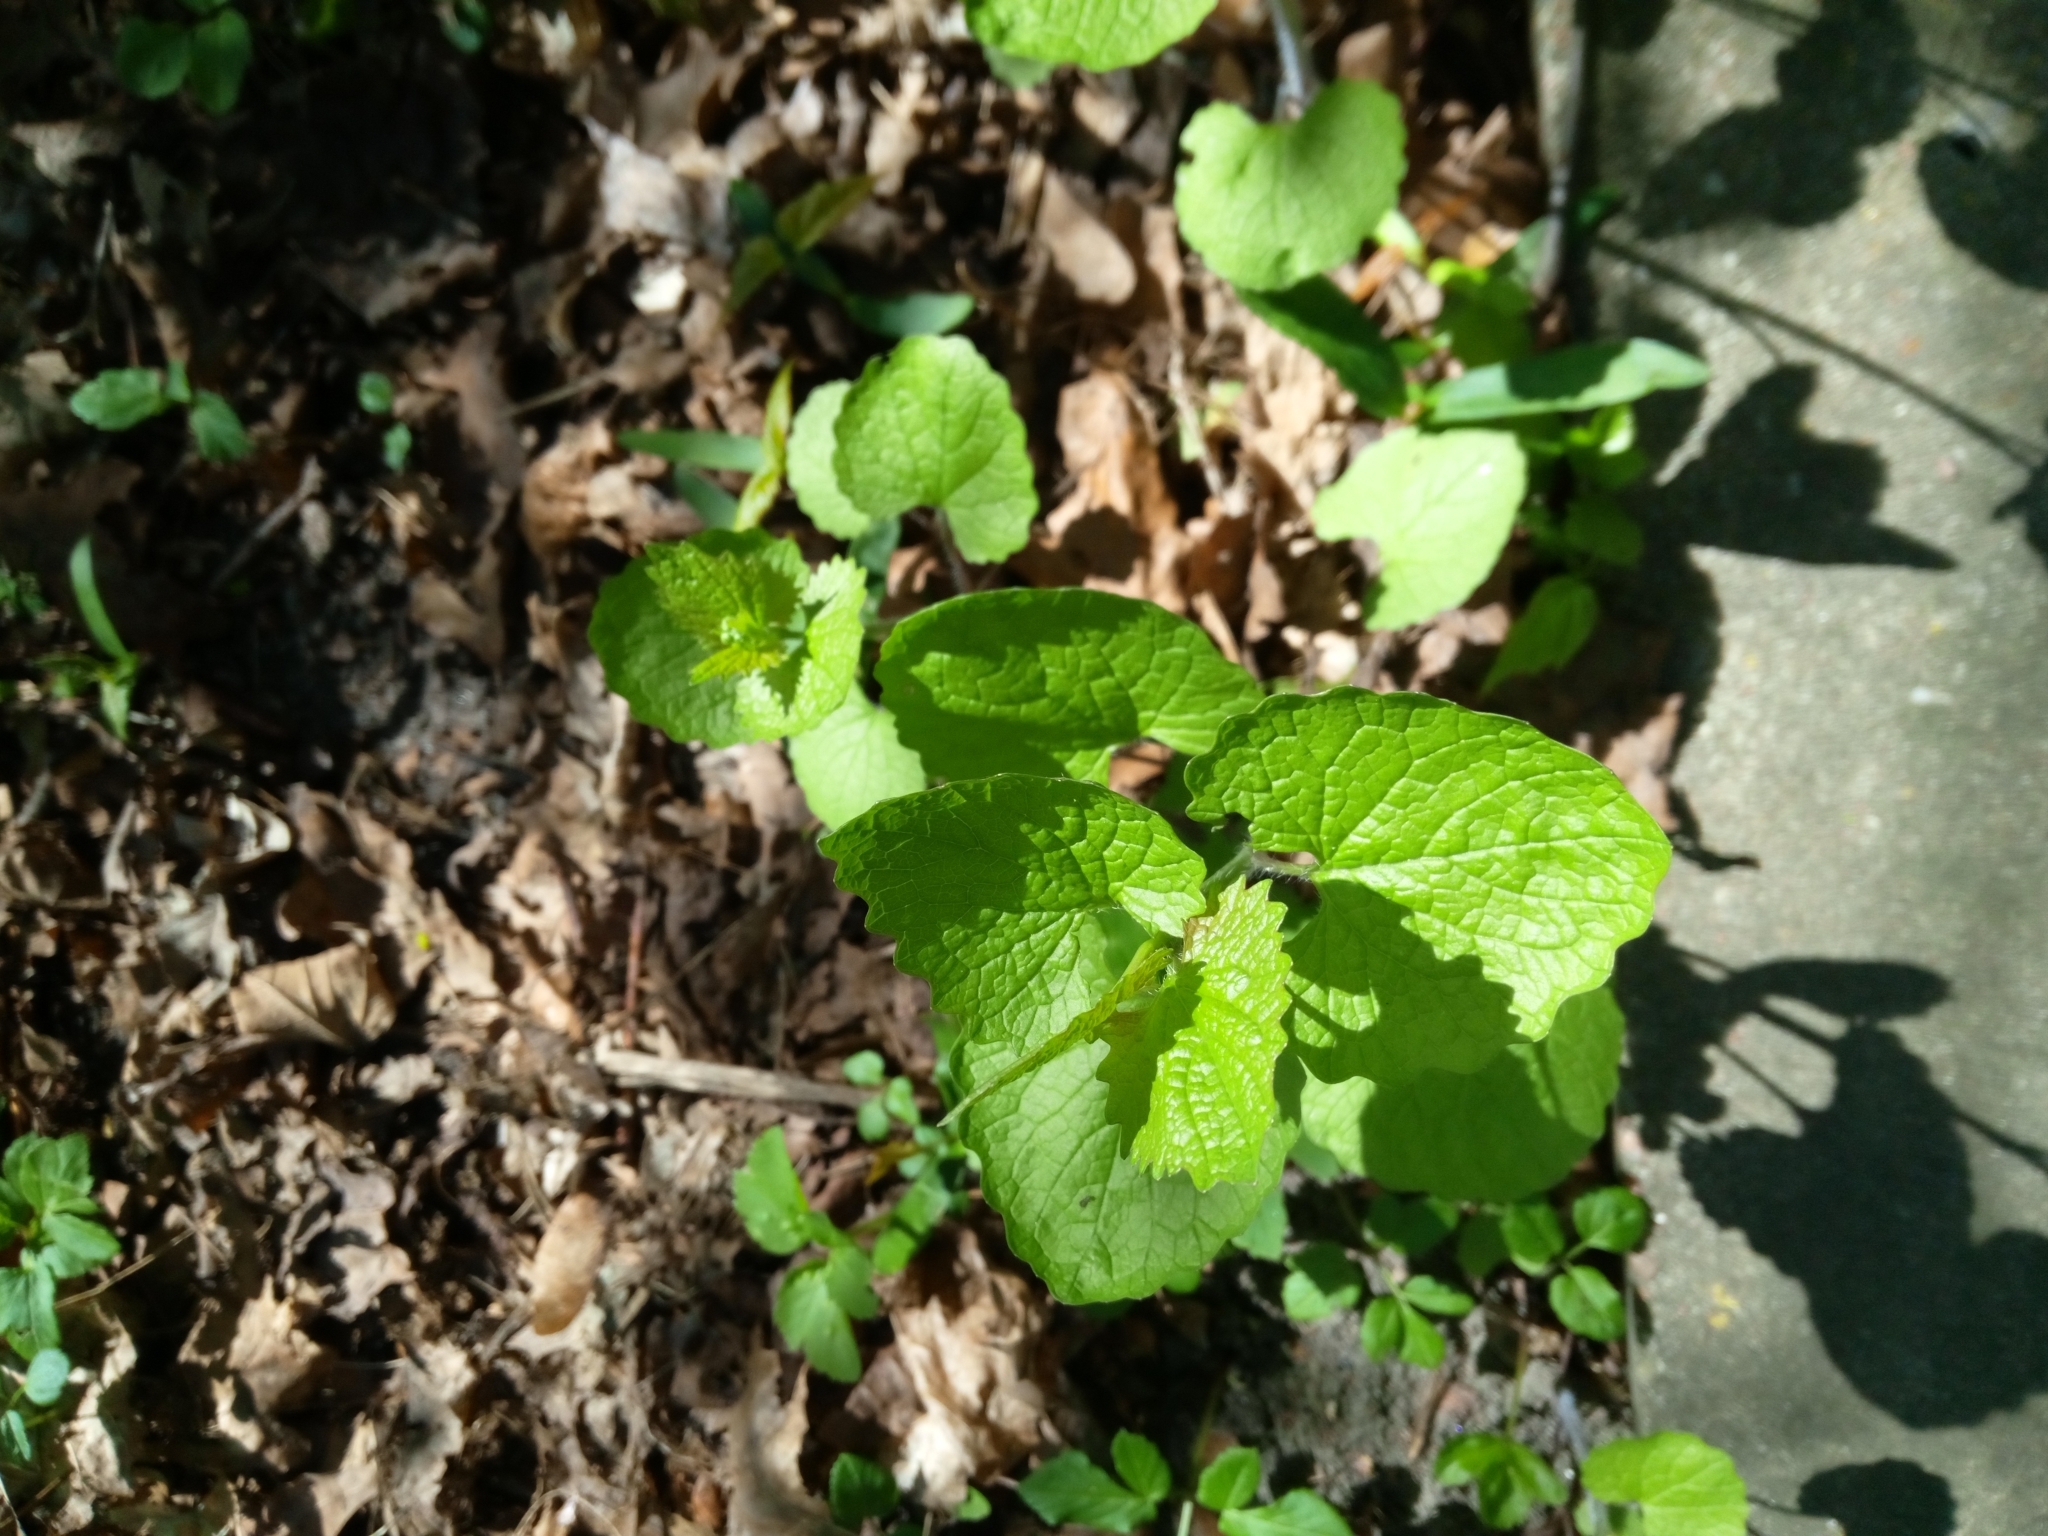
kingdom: Plantae
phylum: Tracheophyta
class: Magnoliopsida
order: Brassicales
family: Brassicaceae
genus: Alliaria
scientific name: Alliaria petiolata
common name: Garlic mustard
